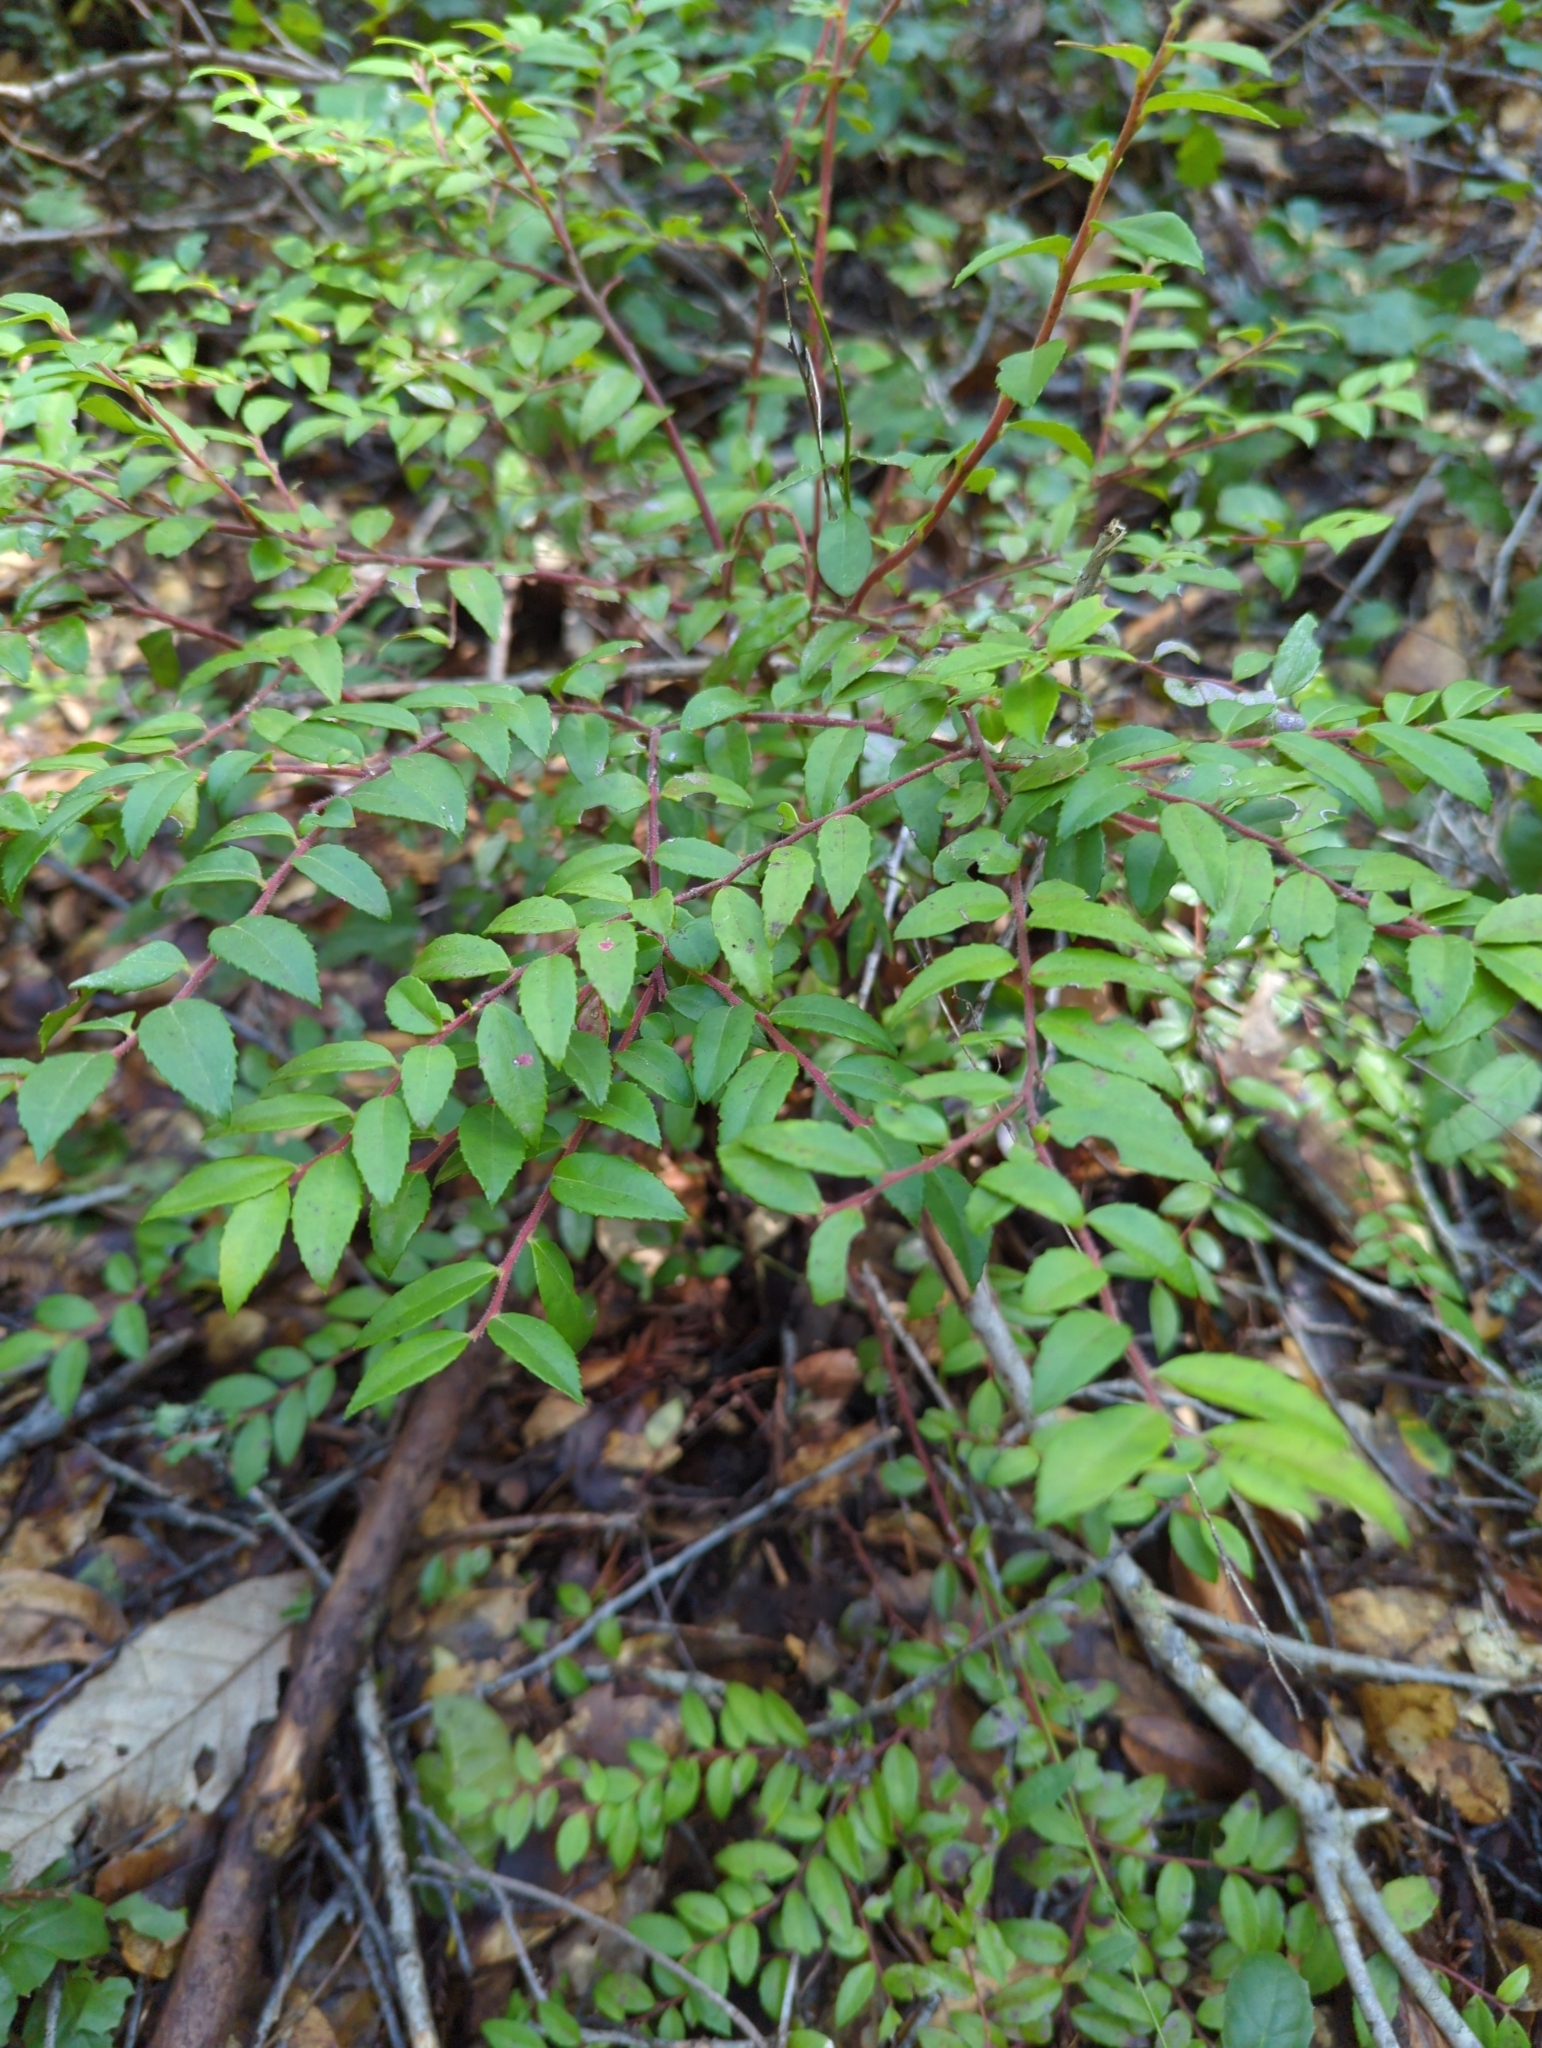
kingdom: Plantae
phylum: Tracheophyta
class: Magnoliopsida
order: Ericales
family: Ericaceae
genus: Vaccinium
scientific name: Vaccinium ovatum
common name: California-huckleberry
